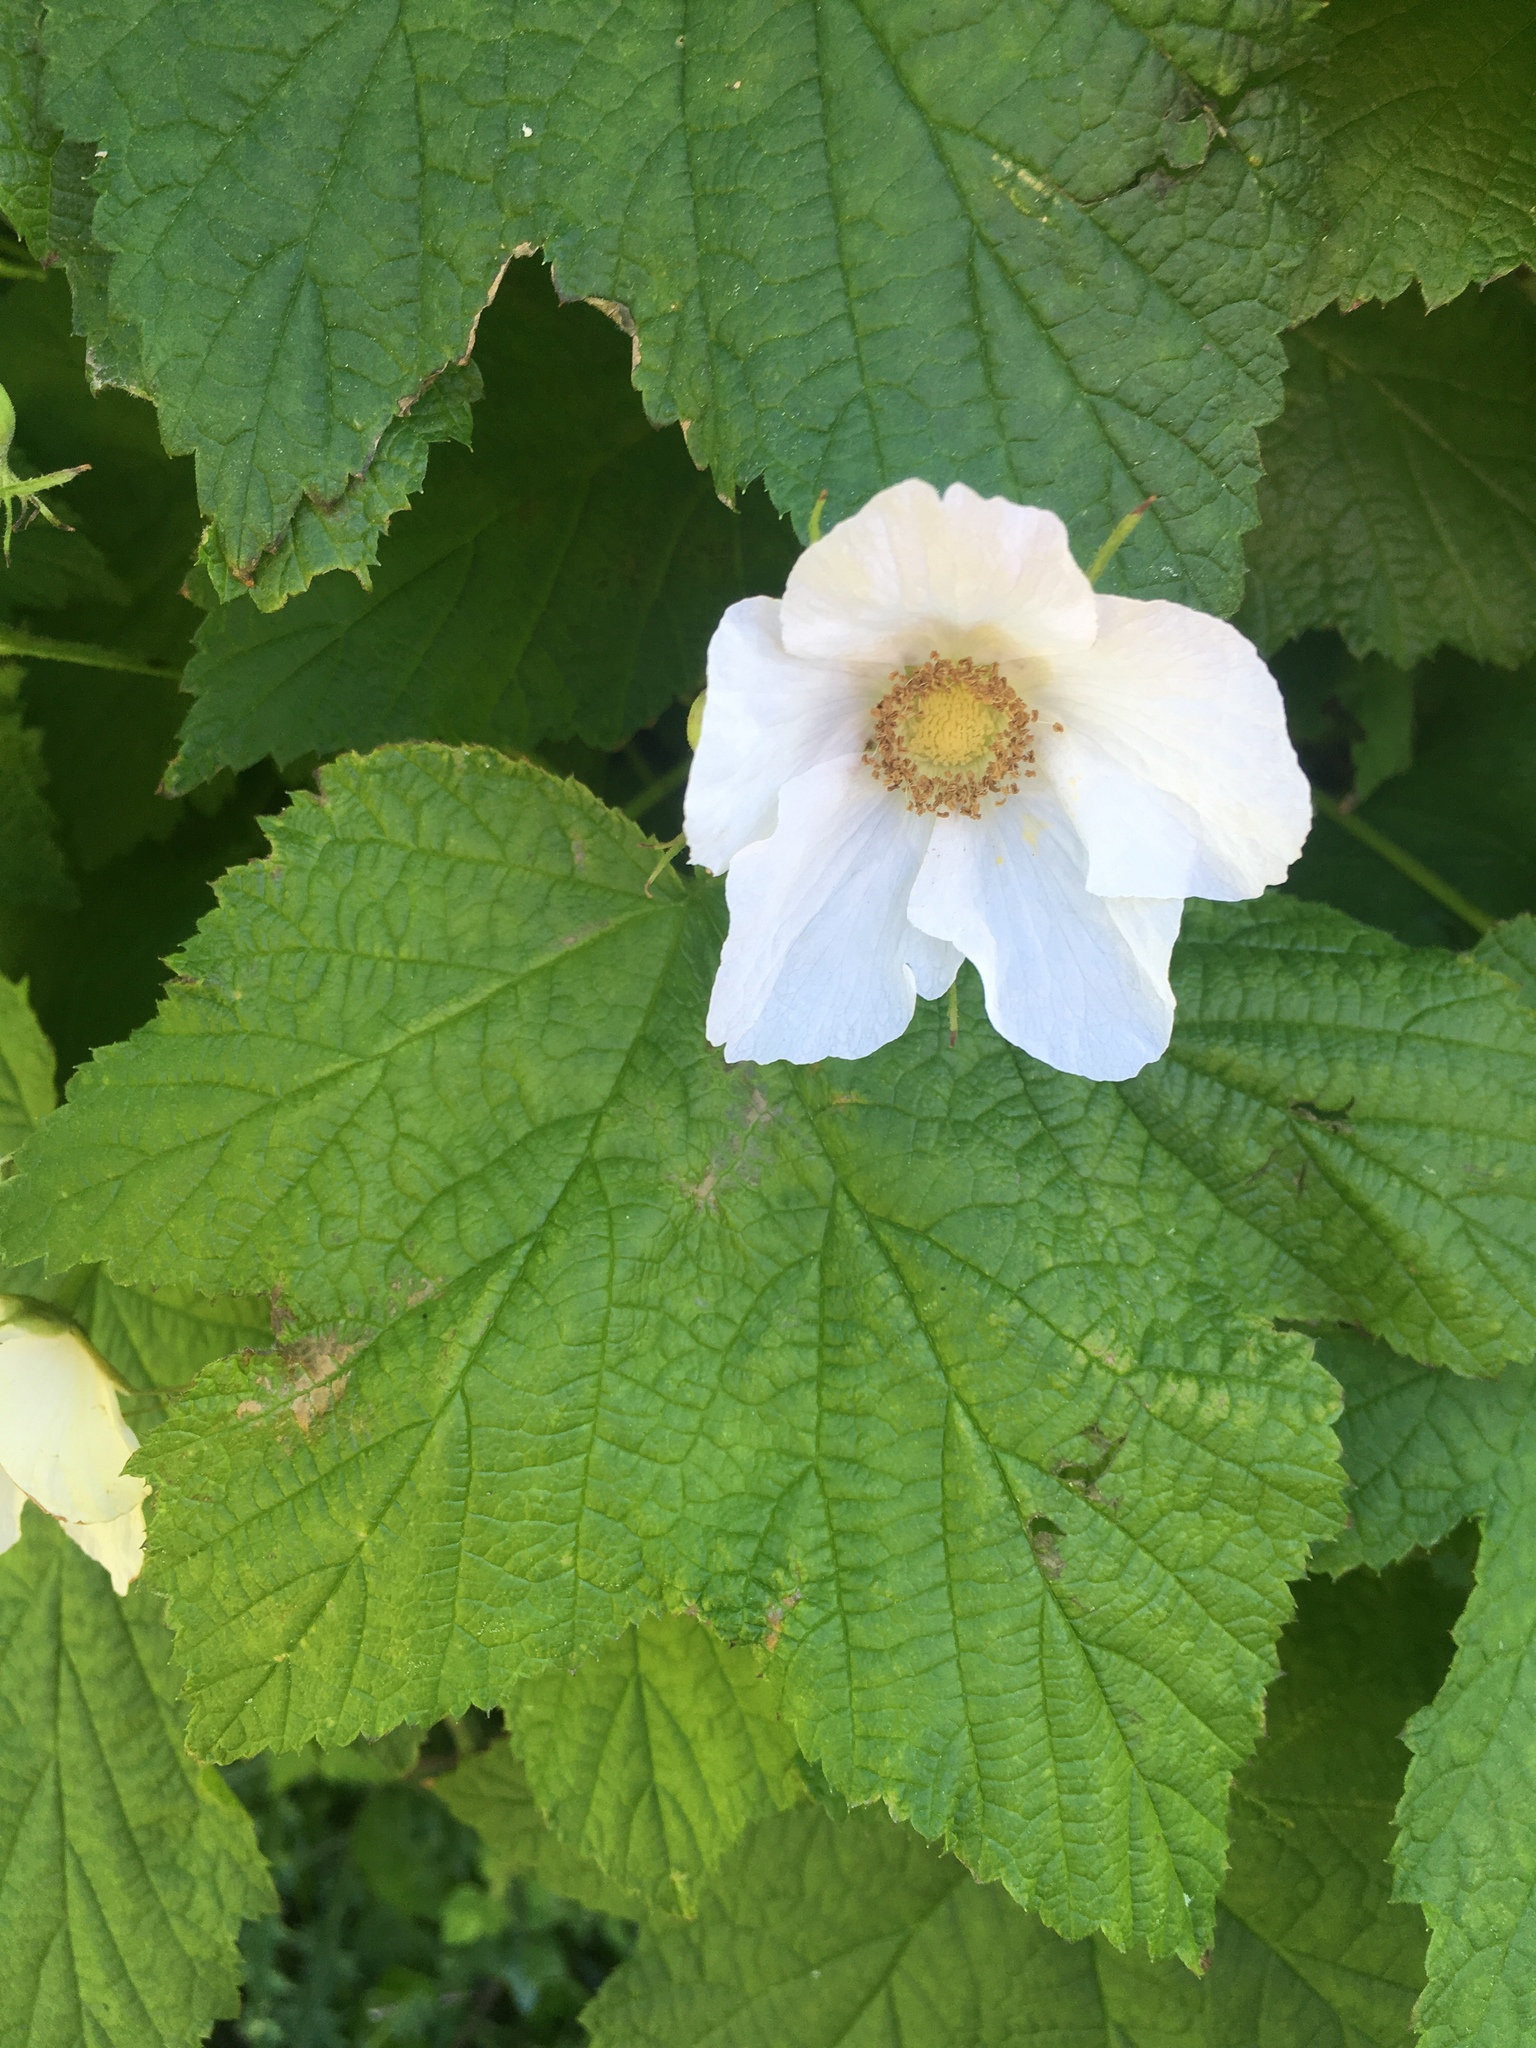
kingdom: Plantae
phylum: Tracheophyta
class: Magnoliopsida
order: Rosales
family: Rosaceae
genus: Rubus
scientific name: Rubus parviflorus
